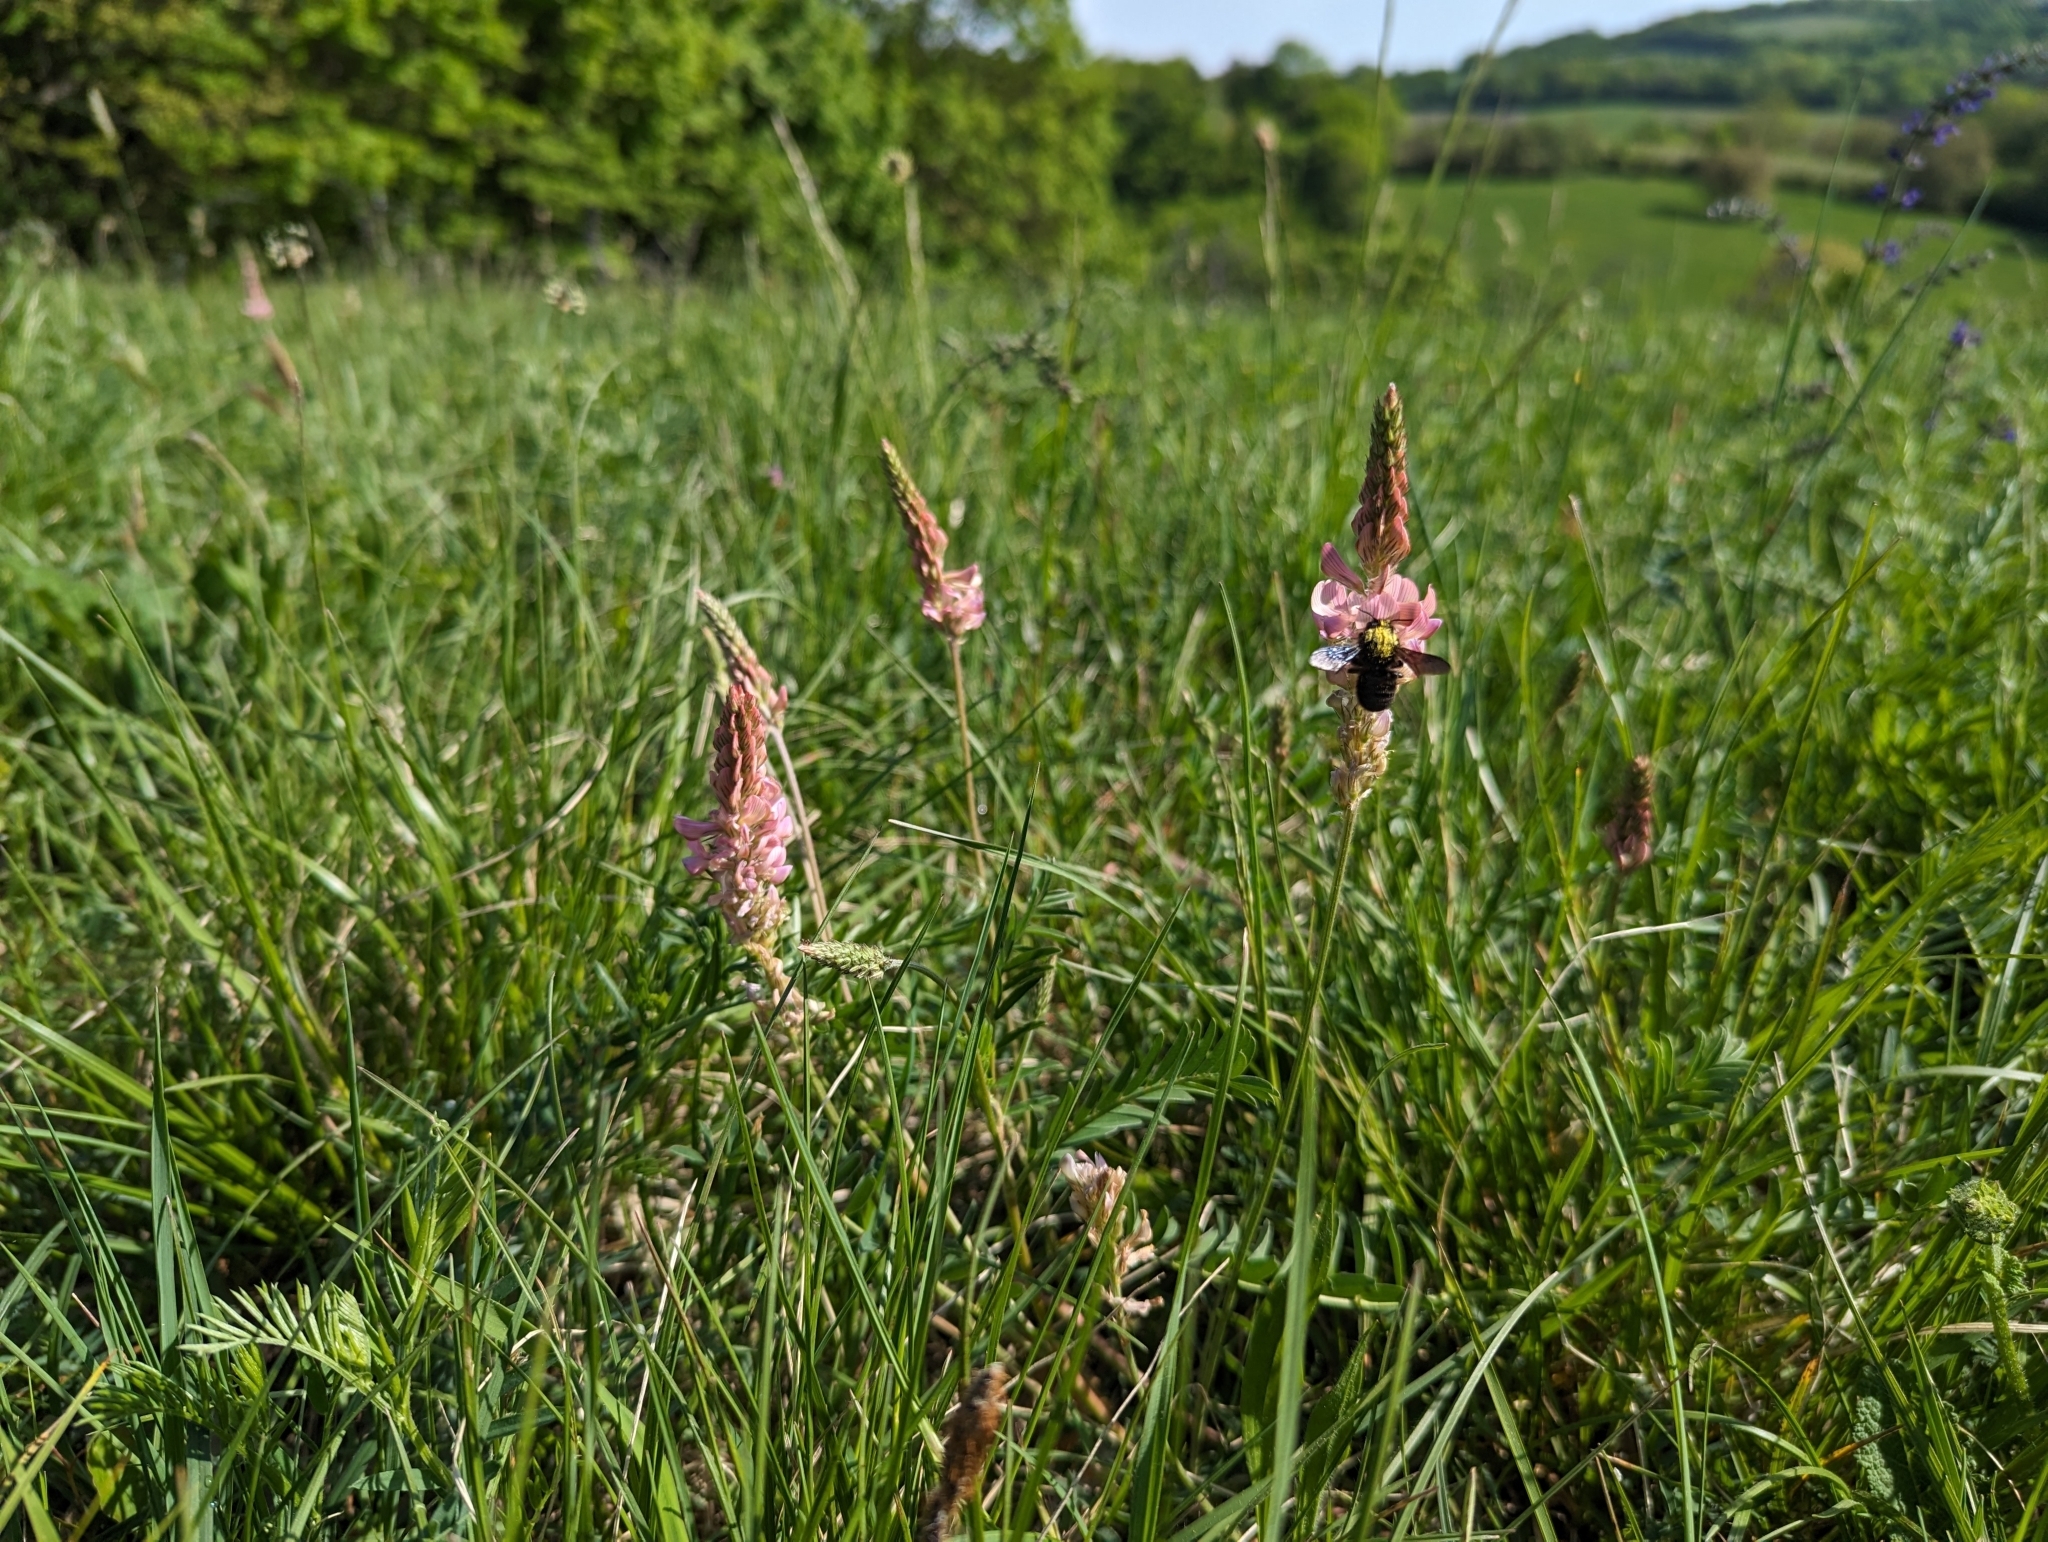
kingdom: Plantae
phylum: Tracheophyta
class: Magnoliopsida
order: Fabales
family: Fabaceae
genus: Onobrychis
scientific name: Onobrychis viciifolia
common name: Sainfoin
